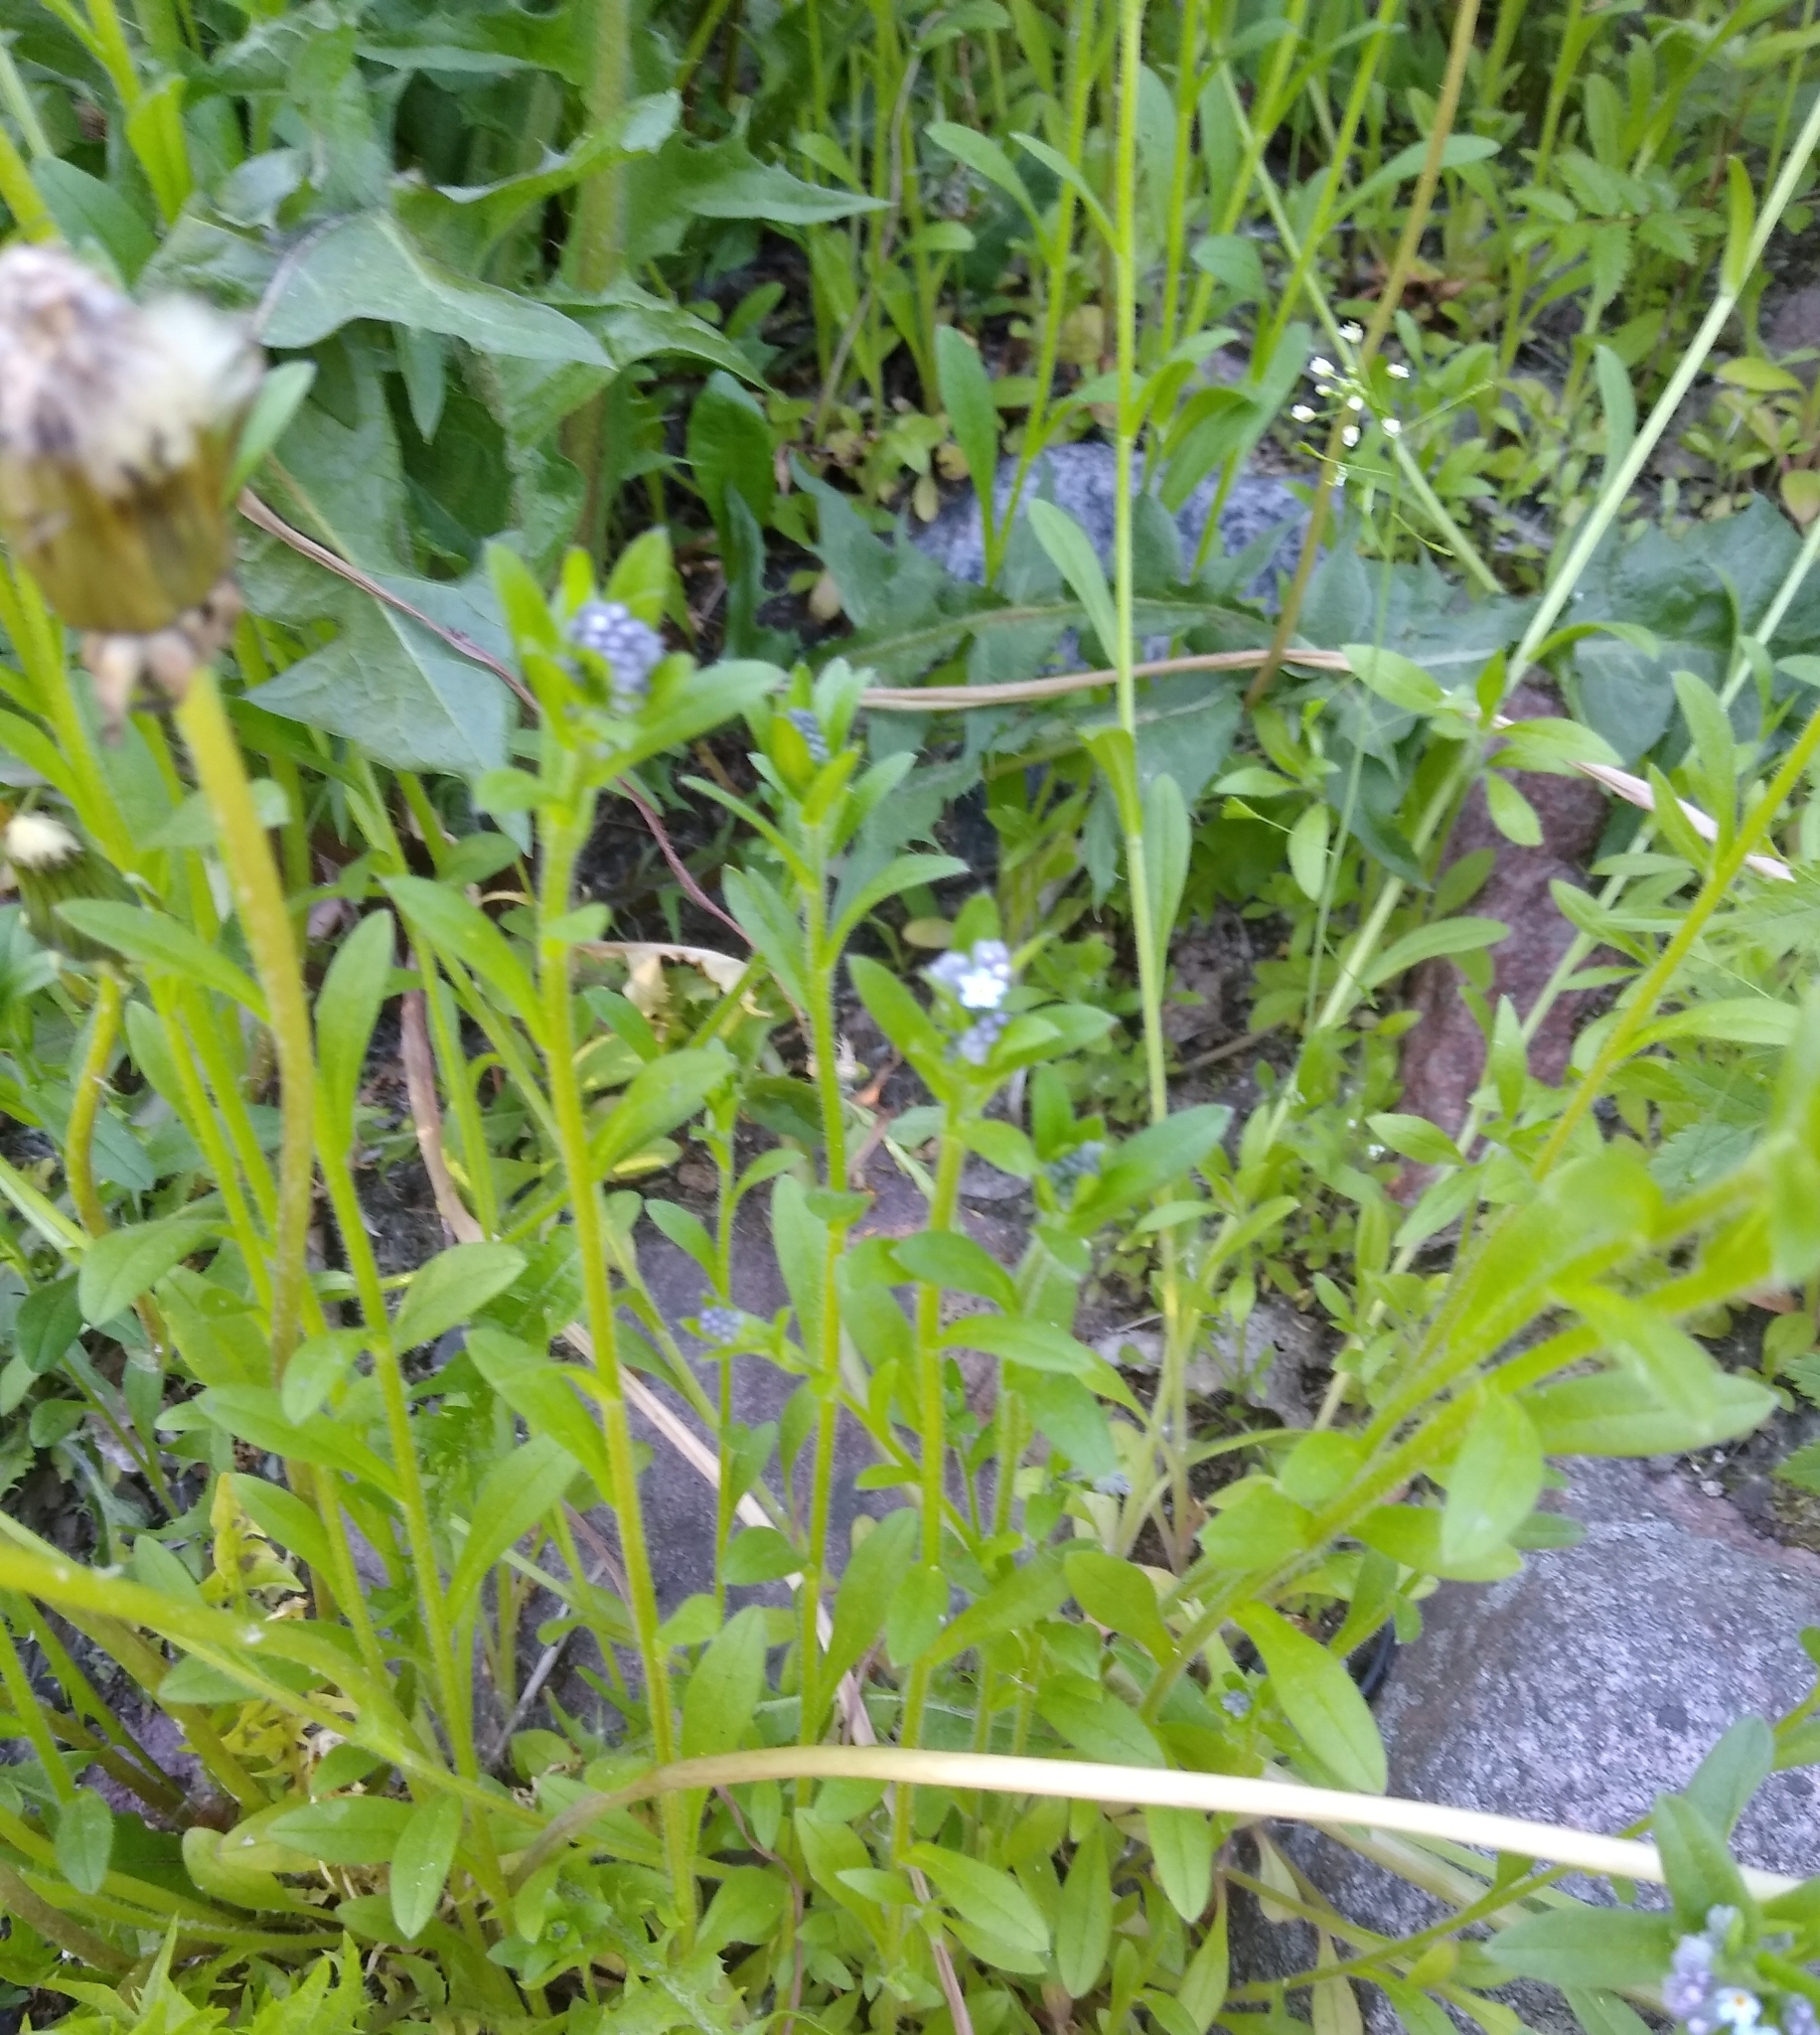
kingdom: Plantae
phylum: Tracheophyta
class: Magnoliopsida
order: Boraginales
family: Boraginaceae
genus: Myosotis
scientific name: Myosotis arvensis
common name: Field forget-me-not
